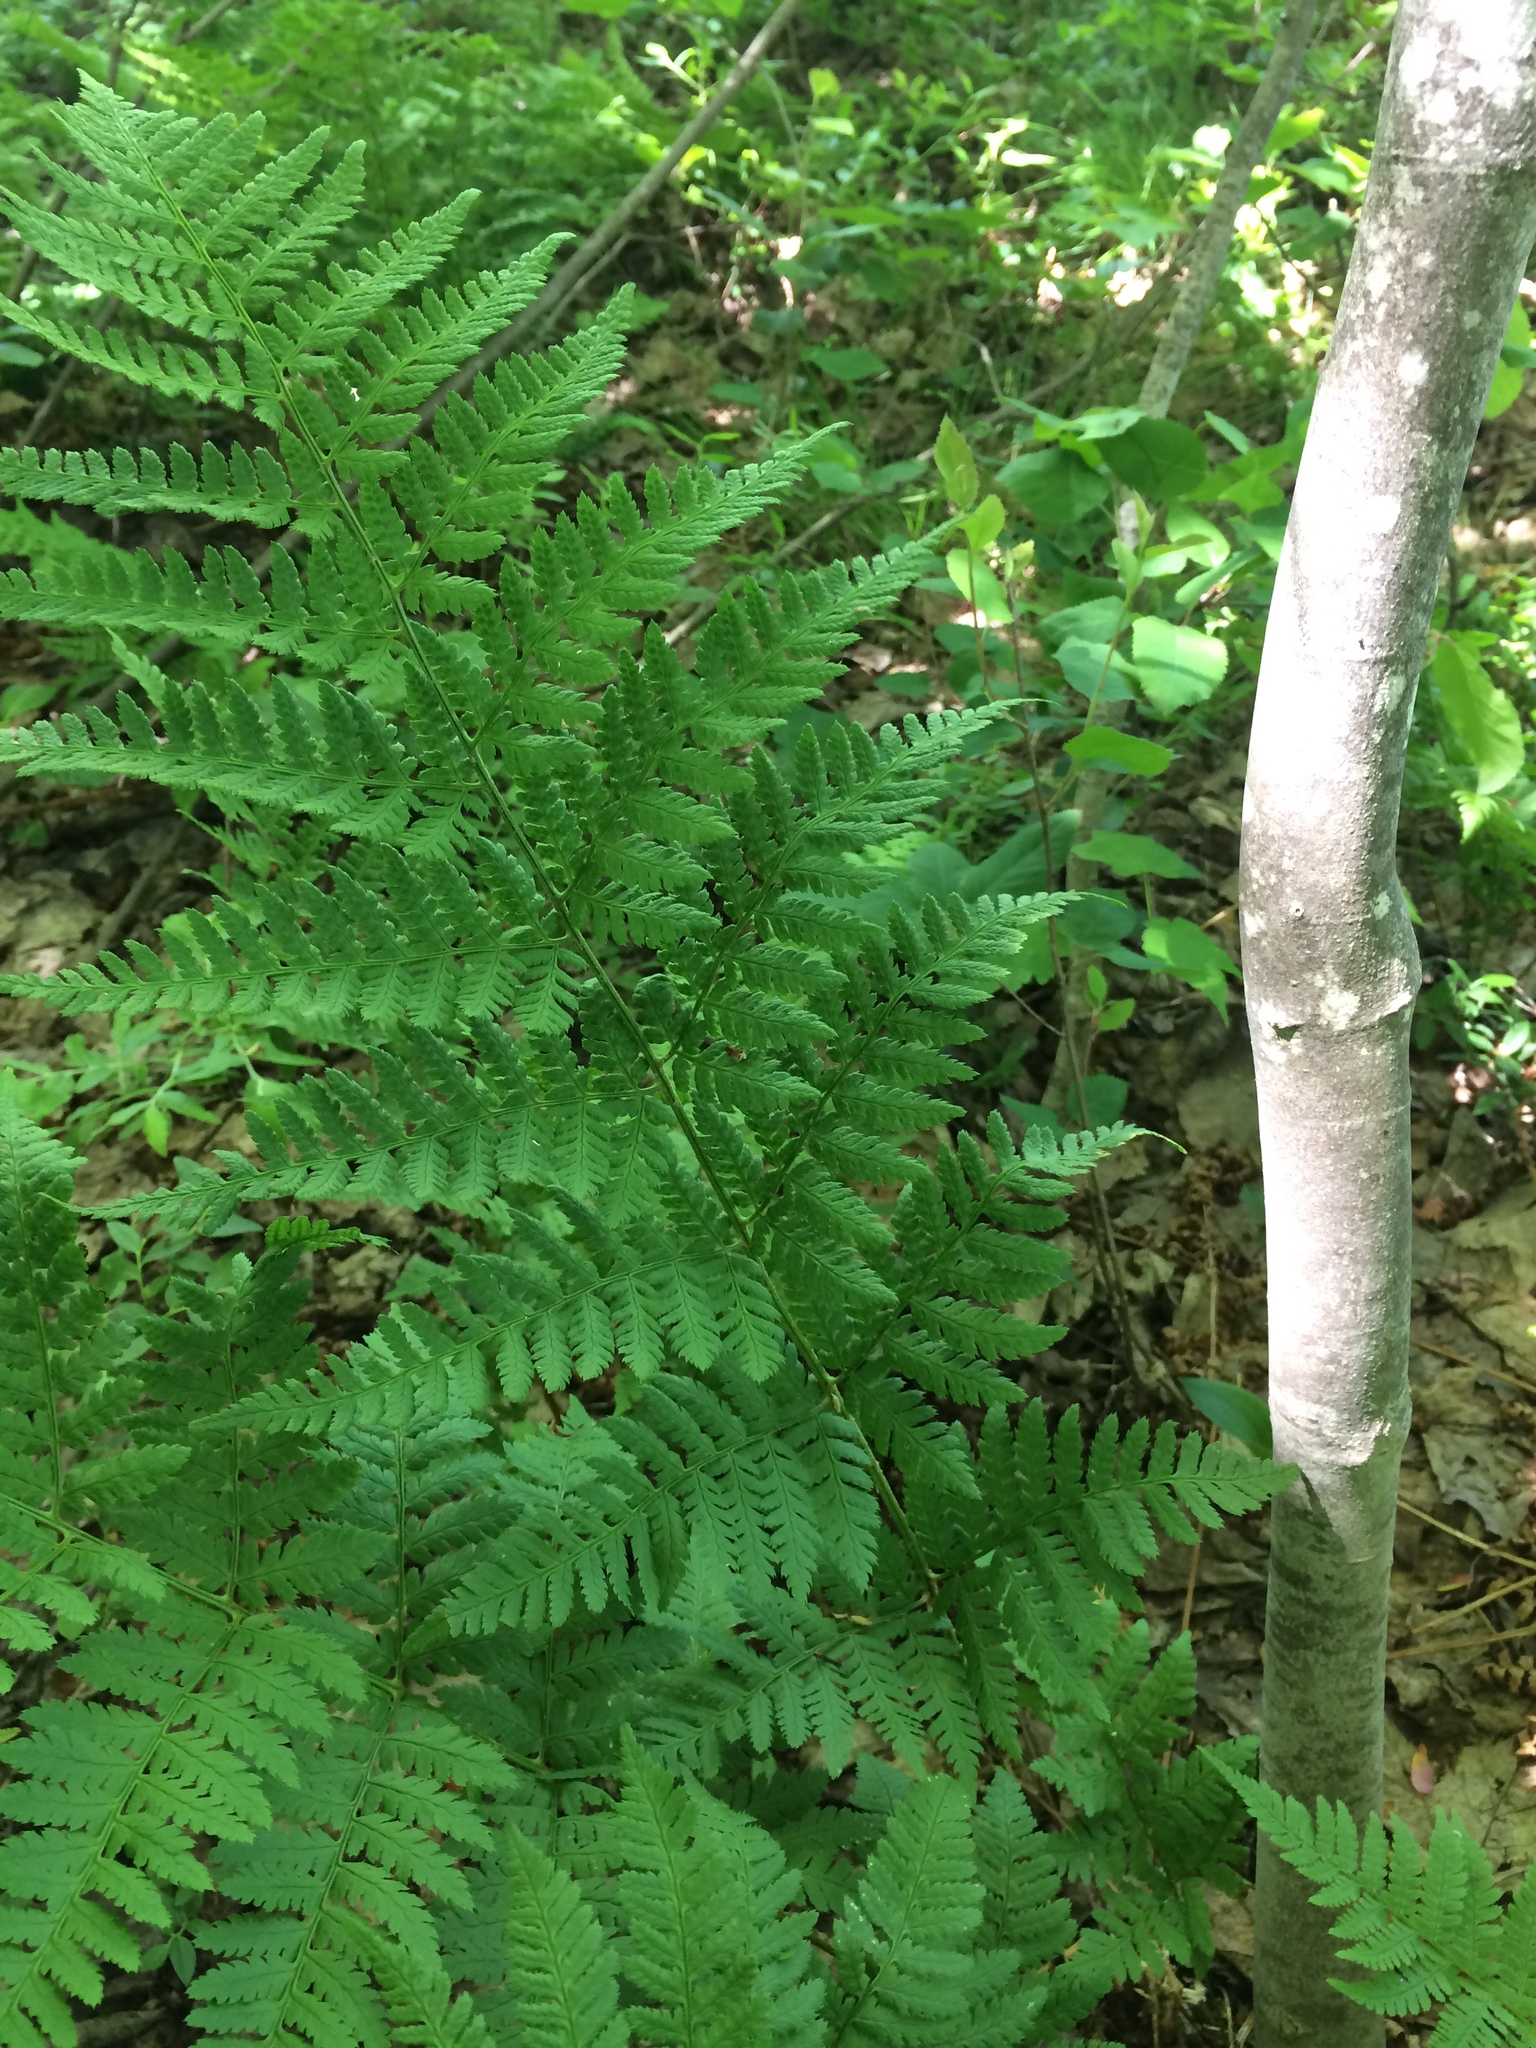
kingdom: Plantae
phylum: Tracheophyta
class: Polypodiopsida
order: Polypodiales
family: Dryopteridaceae
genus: Dryopteris
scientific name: Dryopteris carthusiana
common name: Narrow buckler-fern
